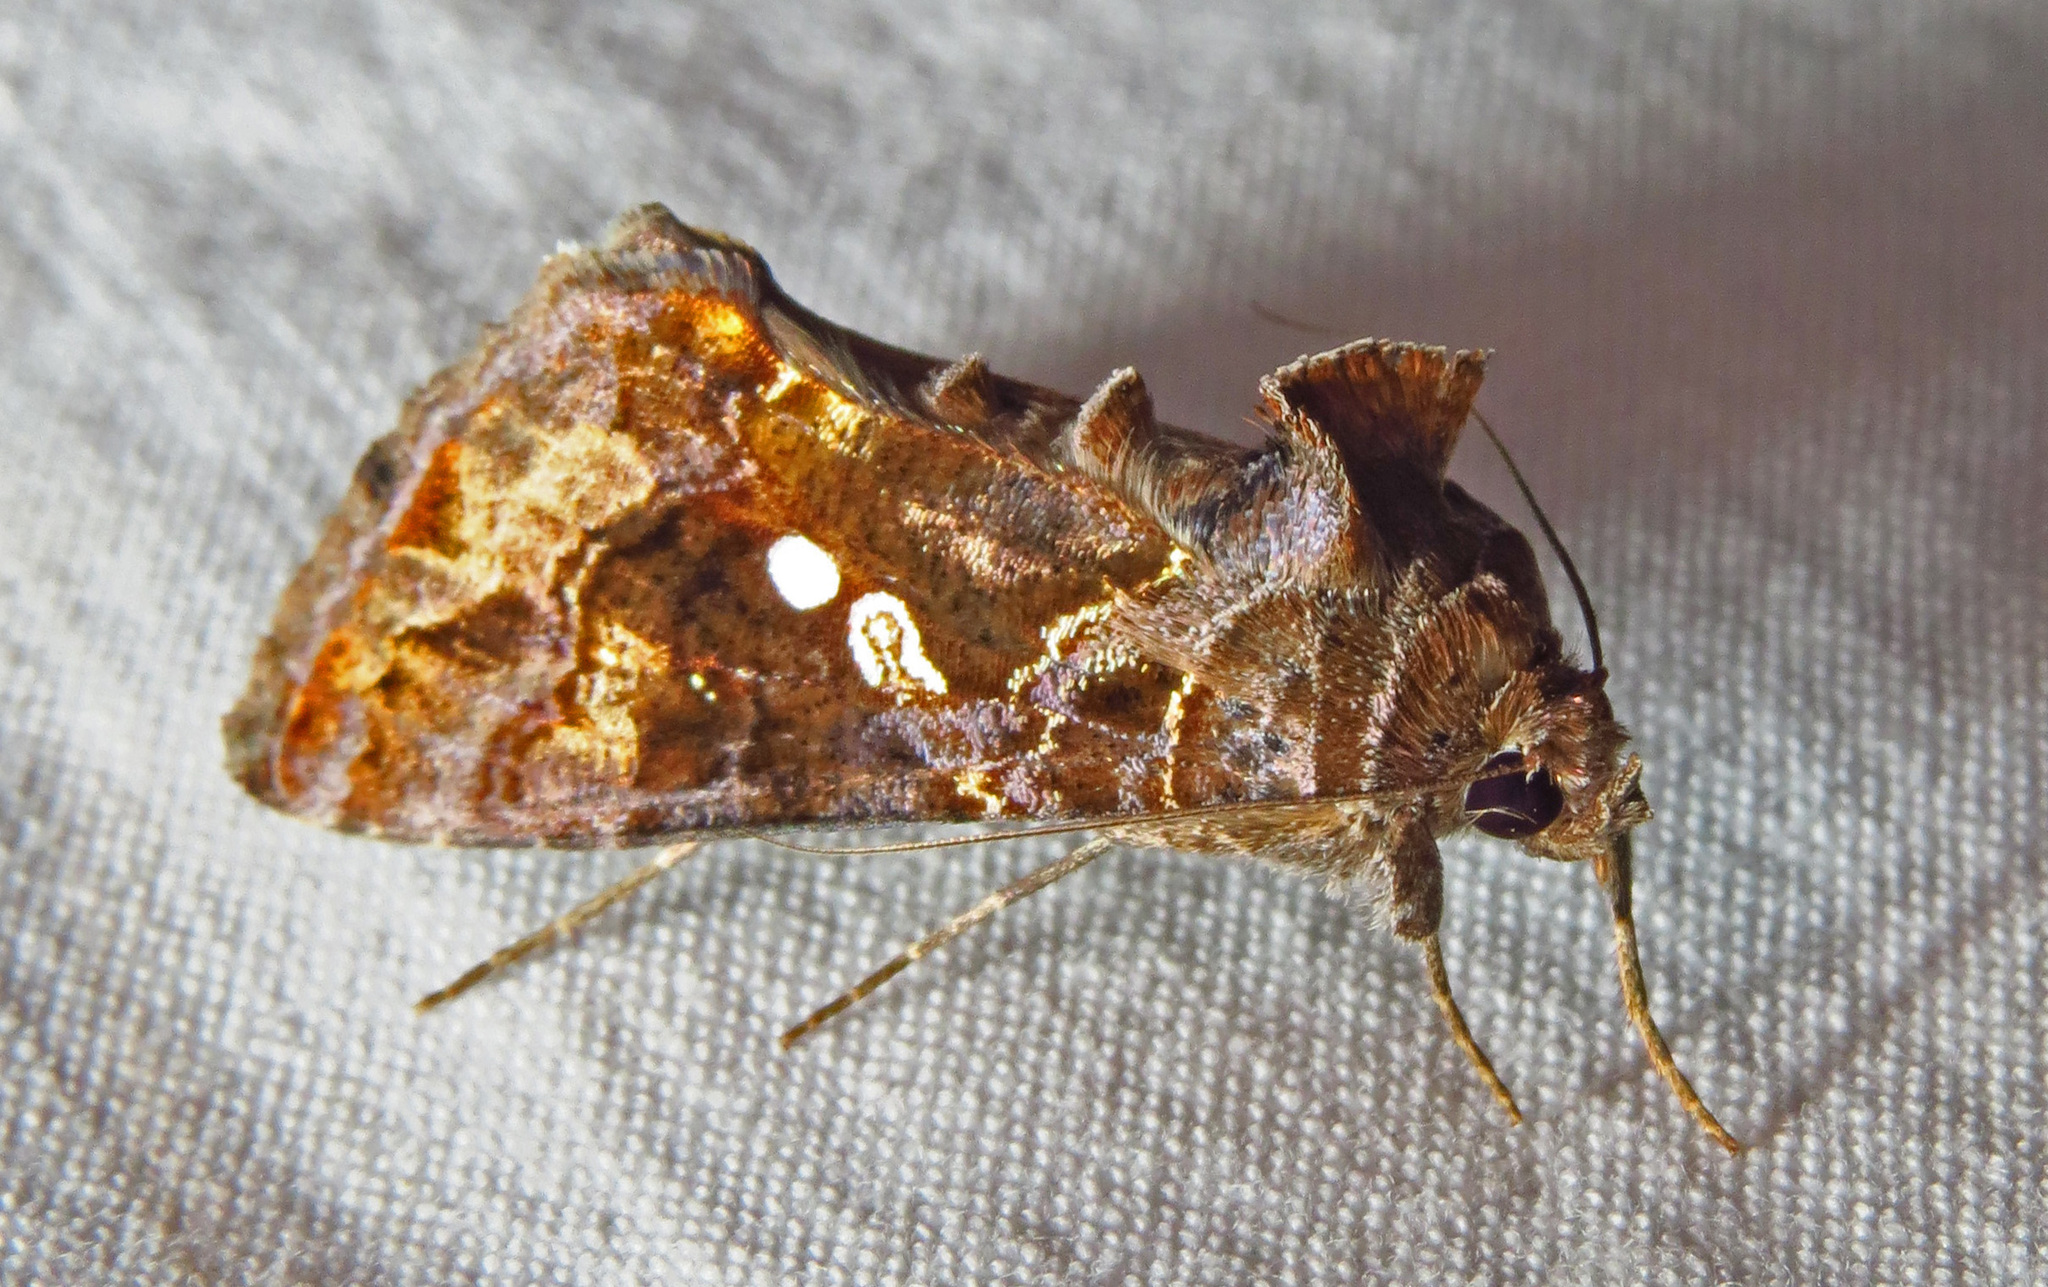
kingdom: Animalia
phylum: Arthropoda
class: Insecta
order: Lepidoptera
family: Noctuidae
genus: Chrysodeixis
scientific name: Chrysodeixis includens
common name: Cutworm moth
